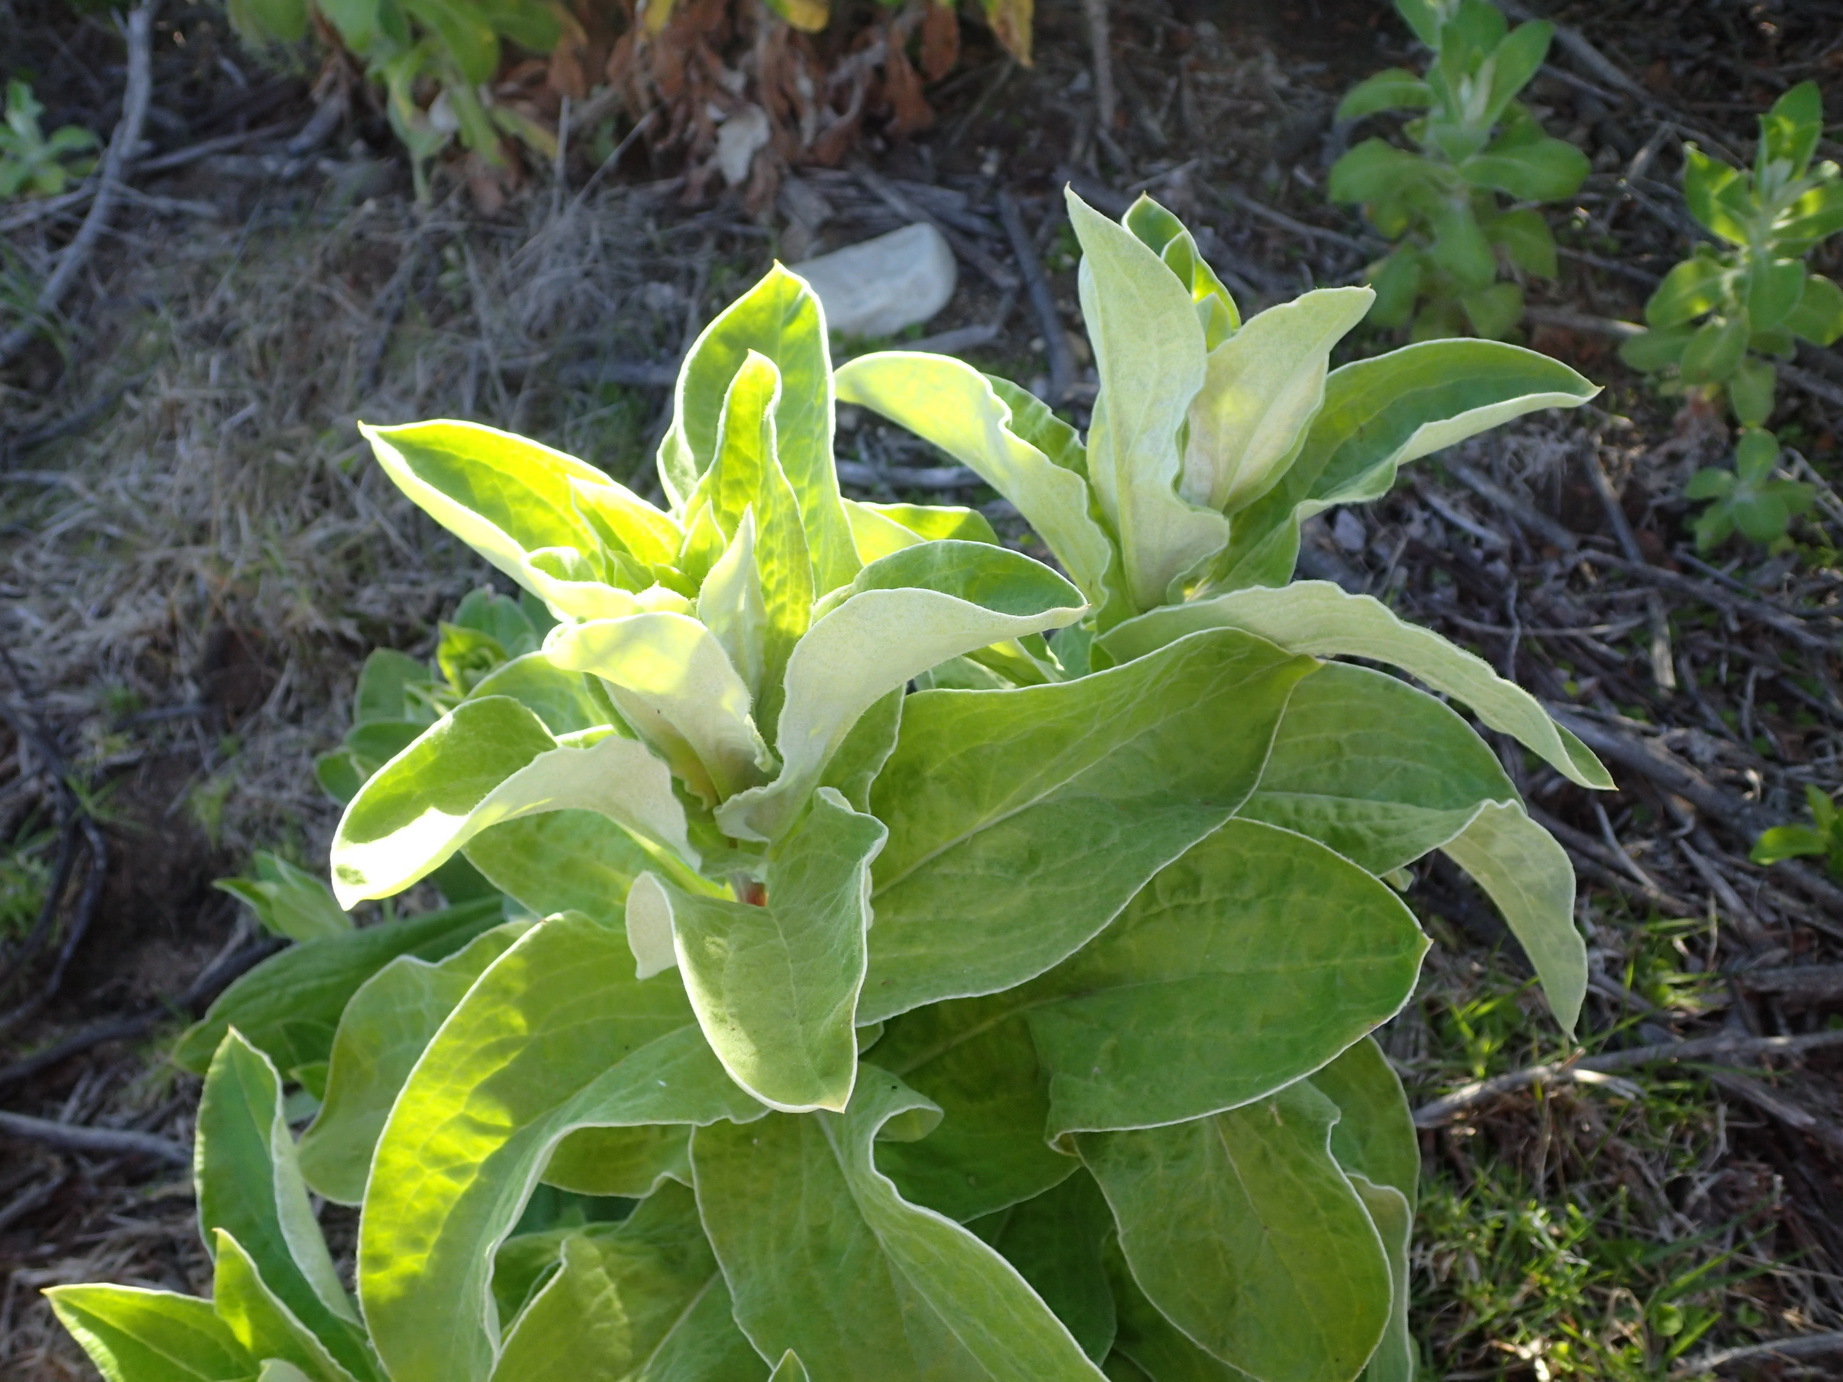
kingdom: Plantae
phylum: Tracheophyta
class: Magnoliopsida
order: Asterales
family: Asteraceae
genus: Helichrysum
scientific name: Helichrysum foetidum
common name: Stinking everlasting
